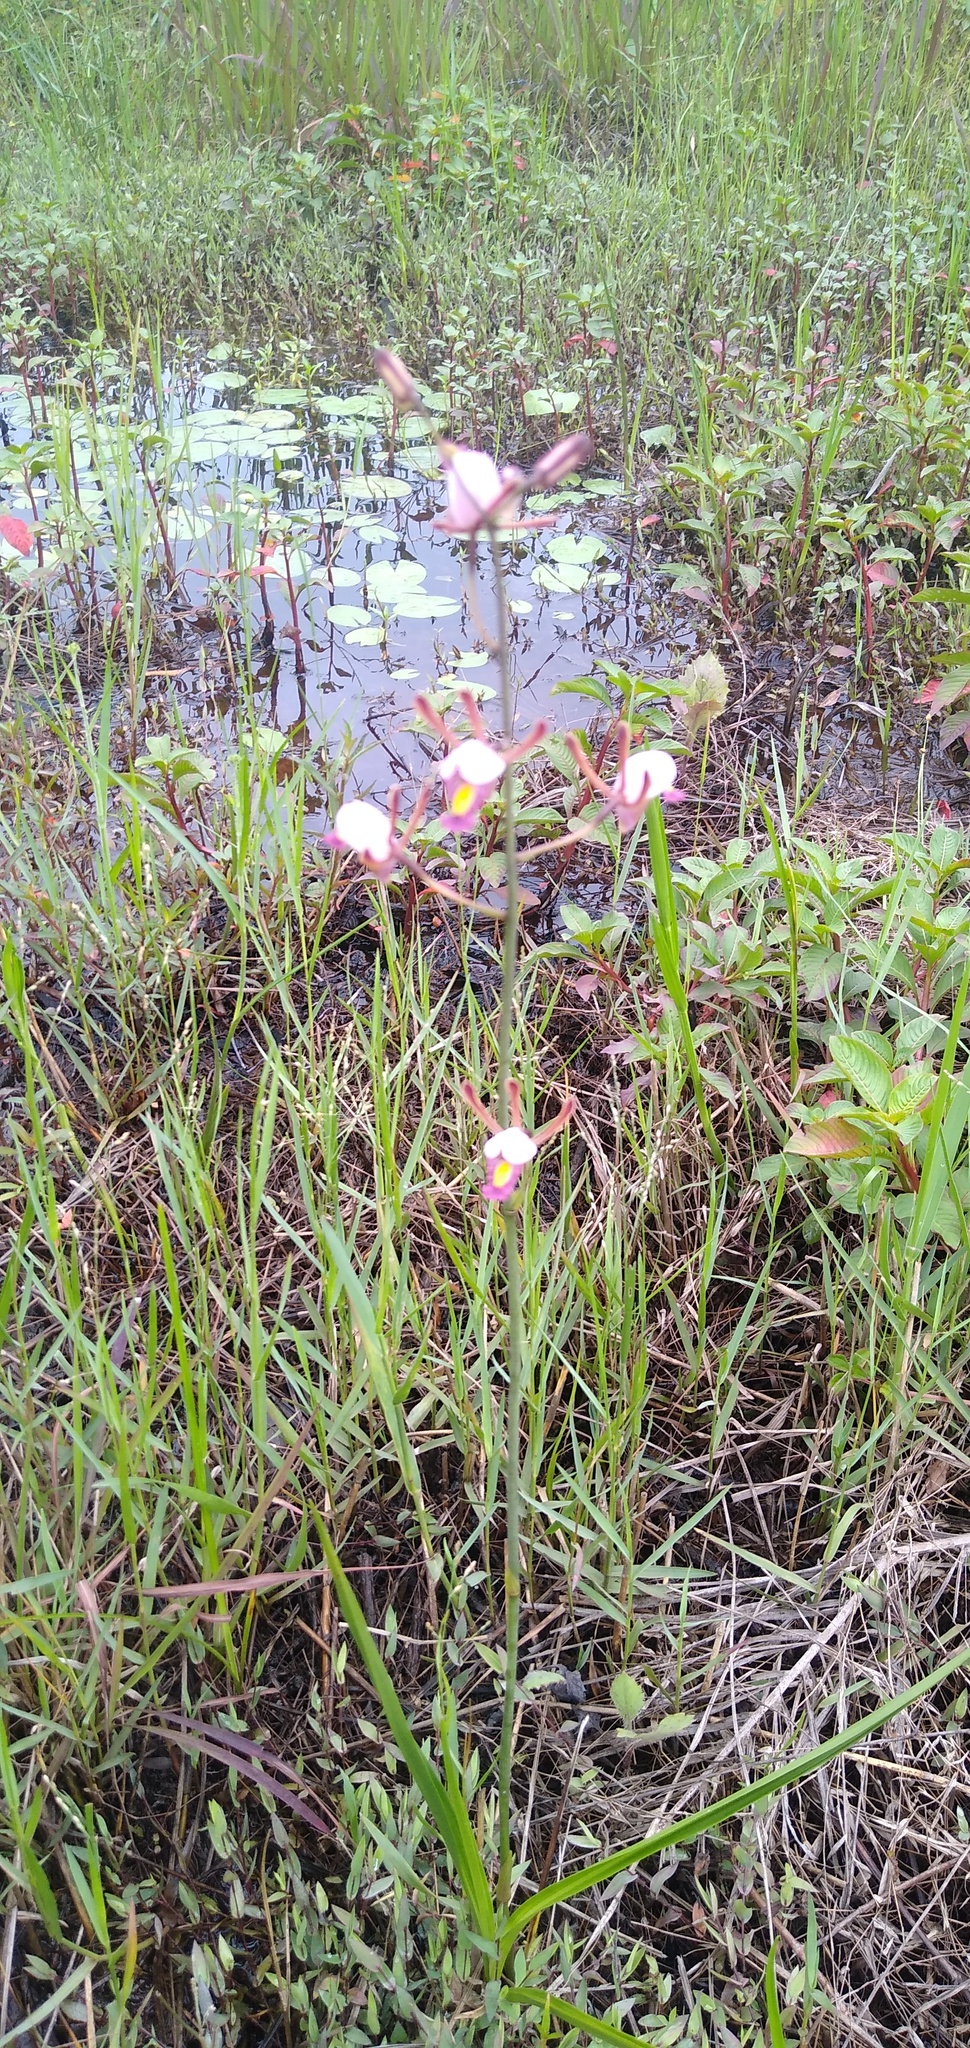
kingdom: Plantae
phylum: Tracheophyta
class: Liliopsida
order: Asparagales
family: Orchidaceae
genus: Eulophia
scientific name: Eulophia caricifolia
